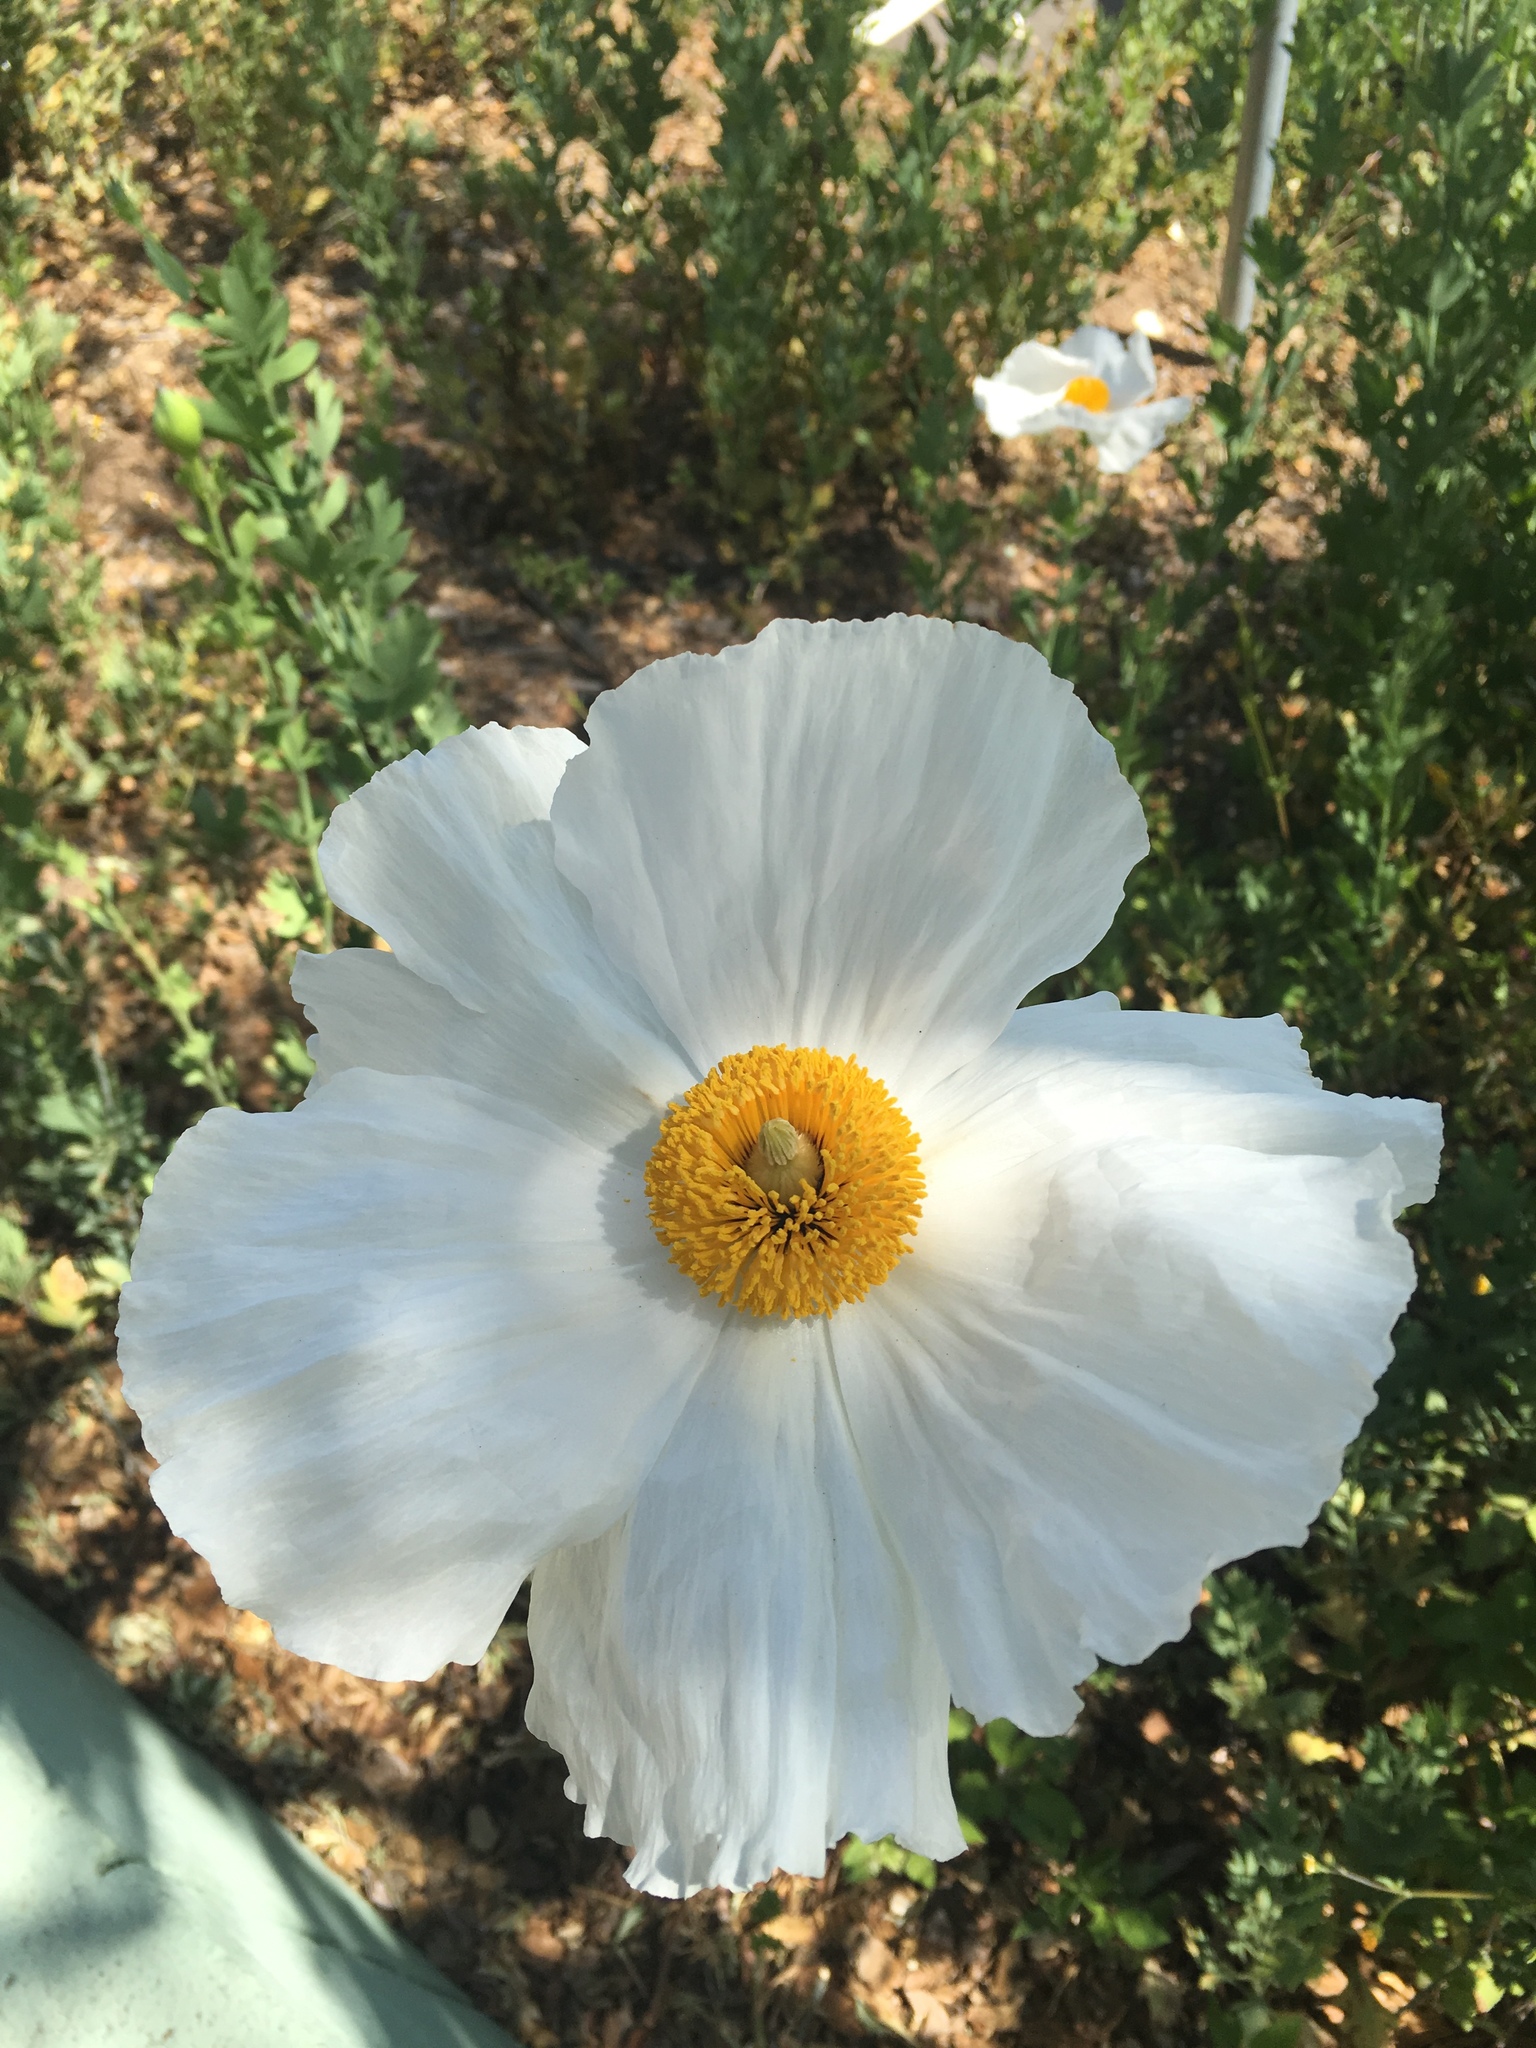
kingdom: Plantae
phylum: Tracheophyta
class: Magnoliopsida
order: Ranunculales
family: Papaveraceae
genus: Romneya
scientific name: Romneya coulteri
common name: California tree-poppy
